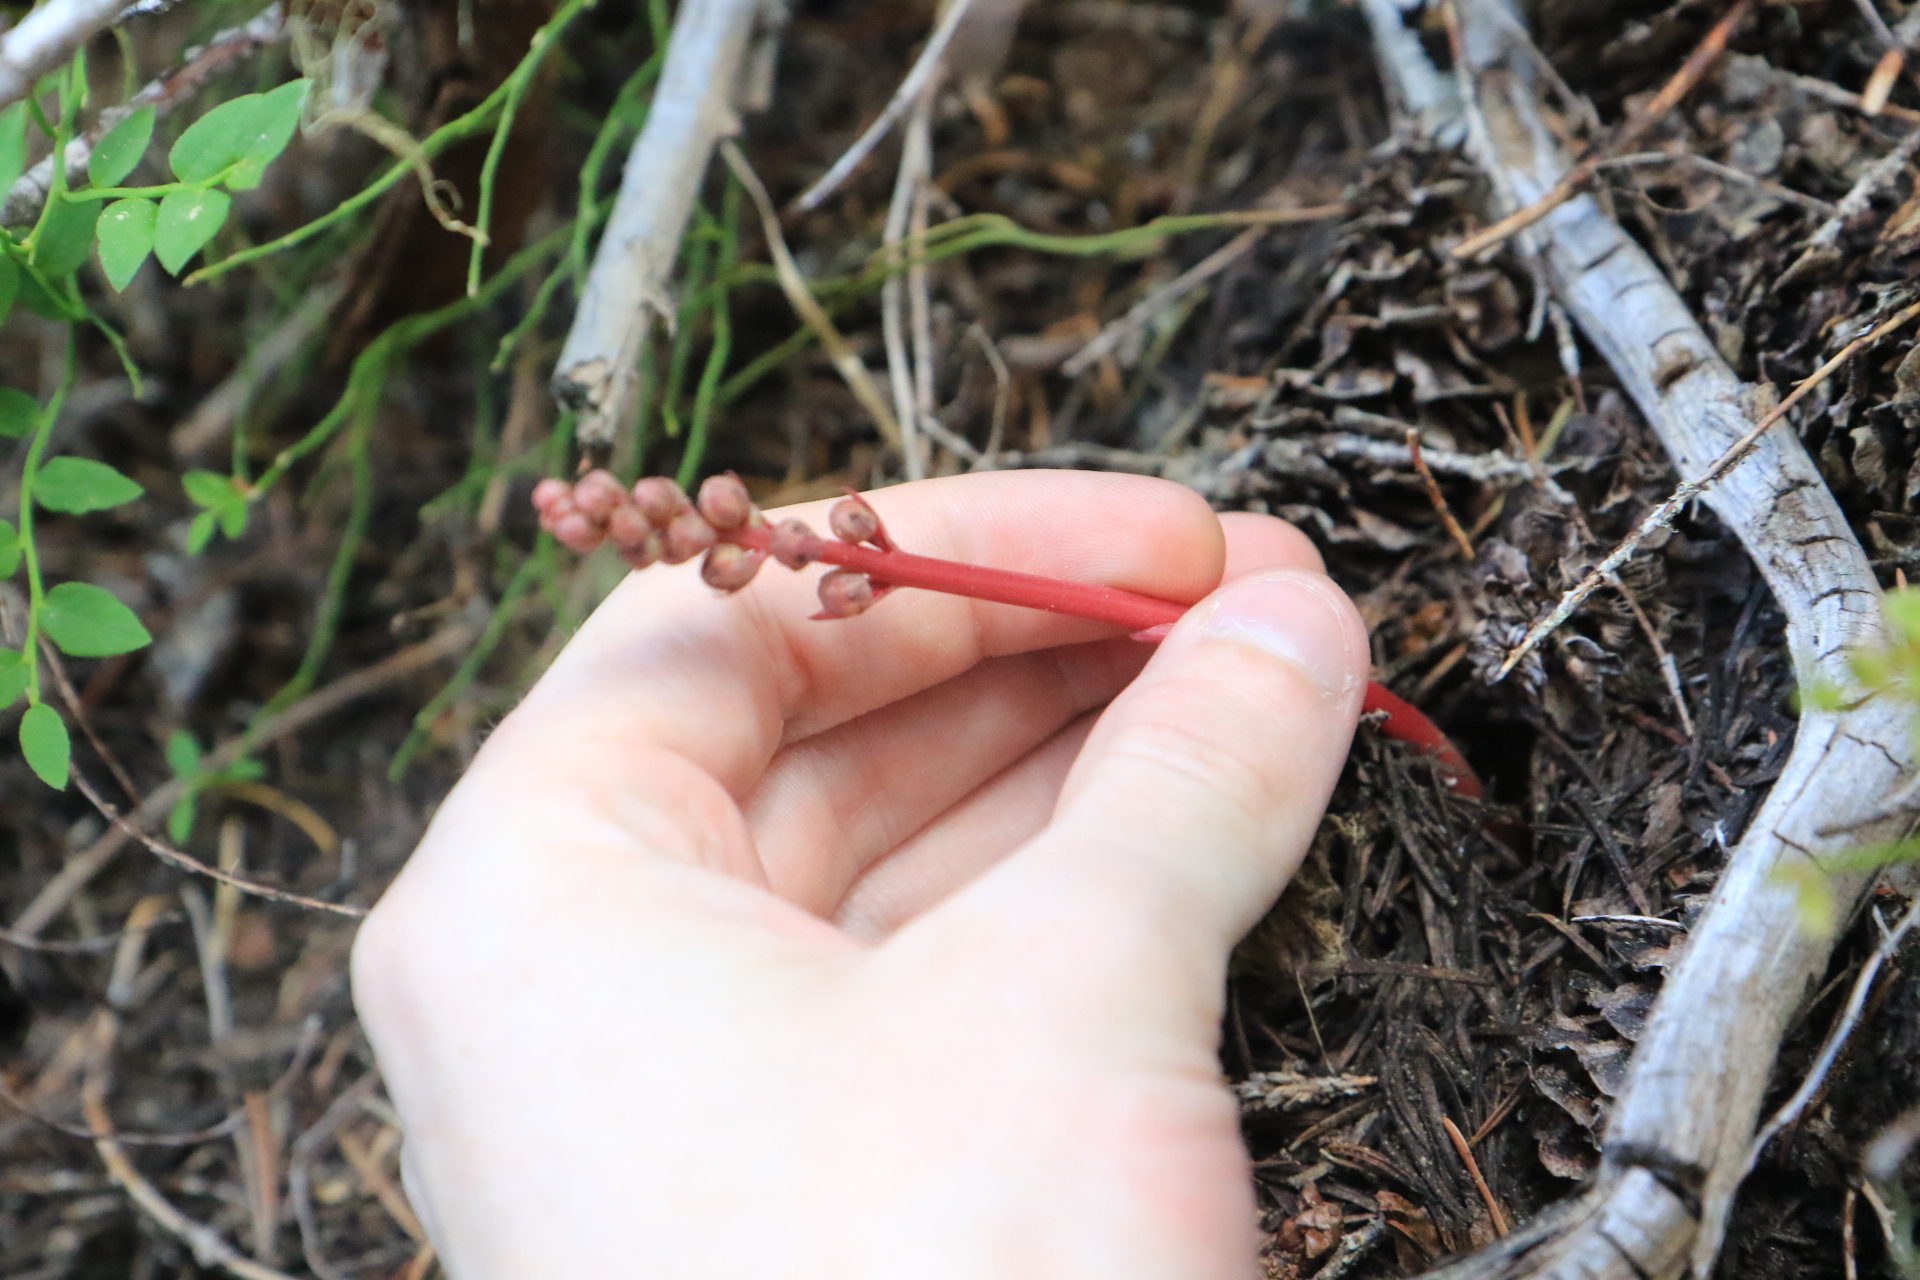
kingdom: Plantae
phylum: Tracheophyta
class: Magnoliopsida
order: Ericales
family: Ericaceae
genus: Pyrola
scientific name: Pyrola aphylla
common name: Leafless wintergreen
